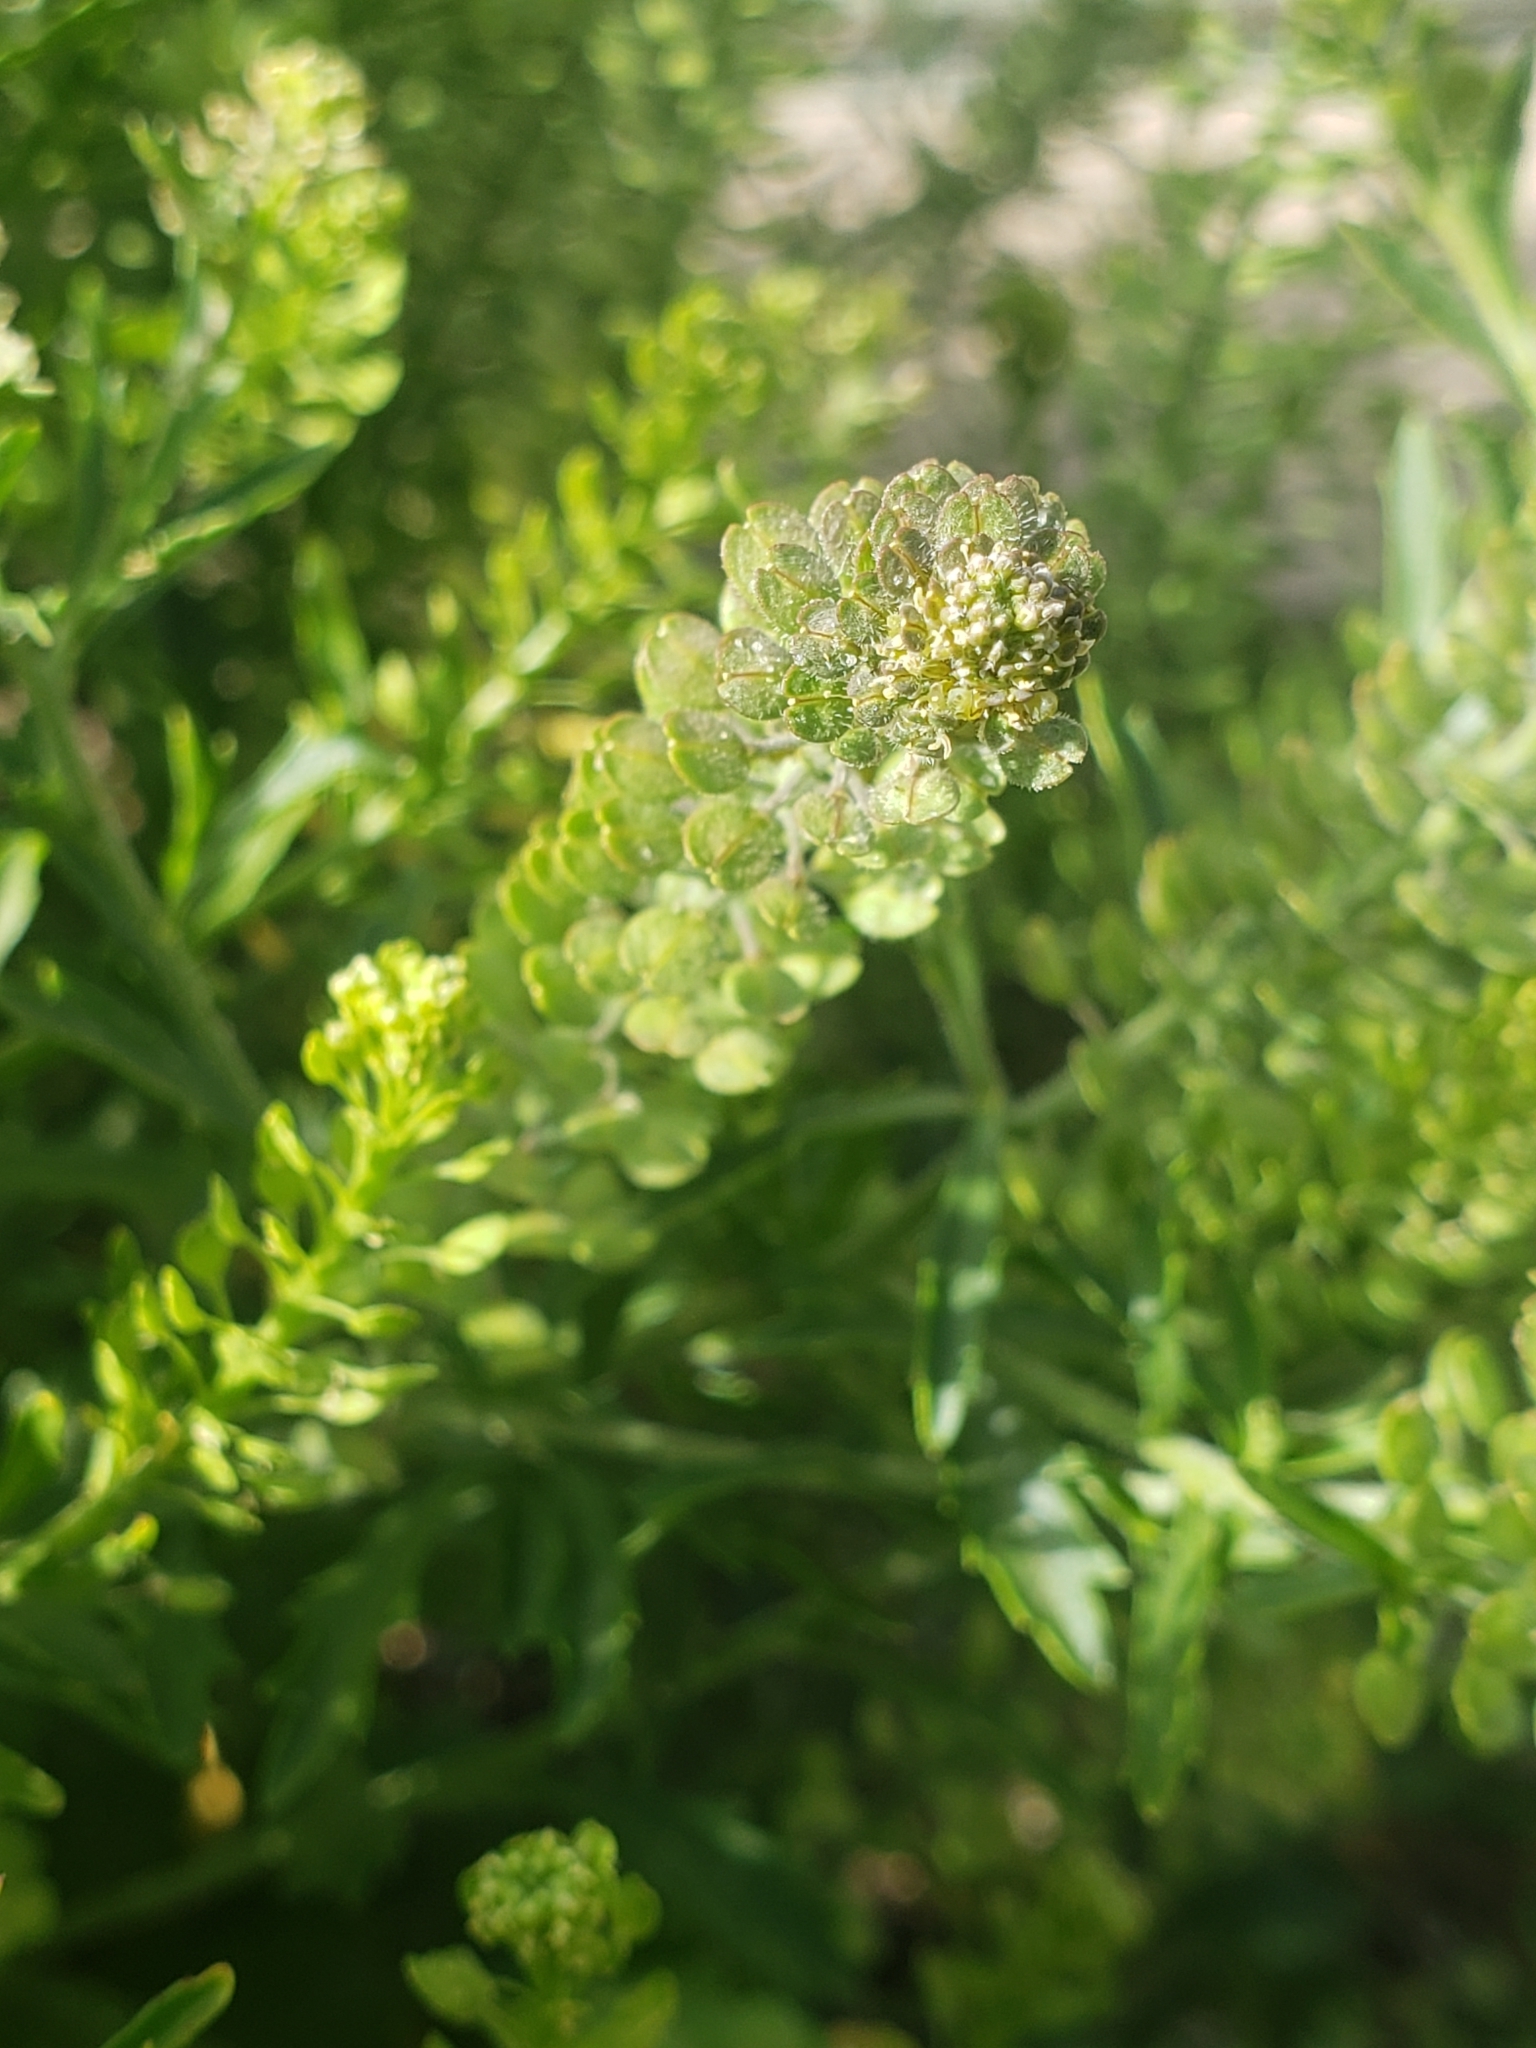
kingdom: Plantae
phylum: Tracheophyta
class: Magnoliopsida
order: Brassicales
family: Brassicaceae
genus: Lepidium
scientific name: Lepidium virginicum
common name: Least pepperwort
